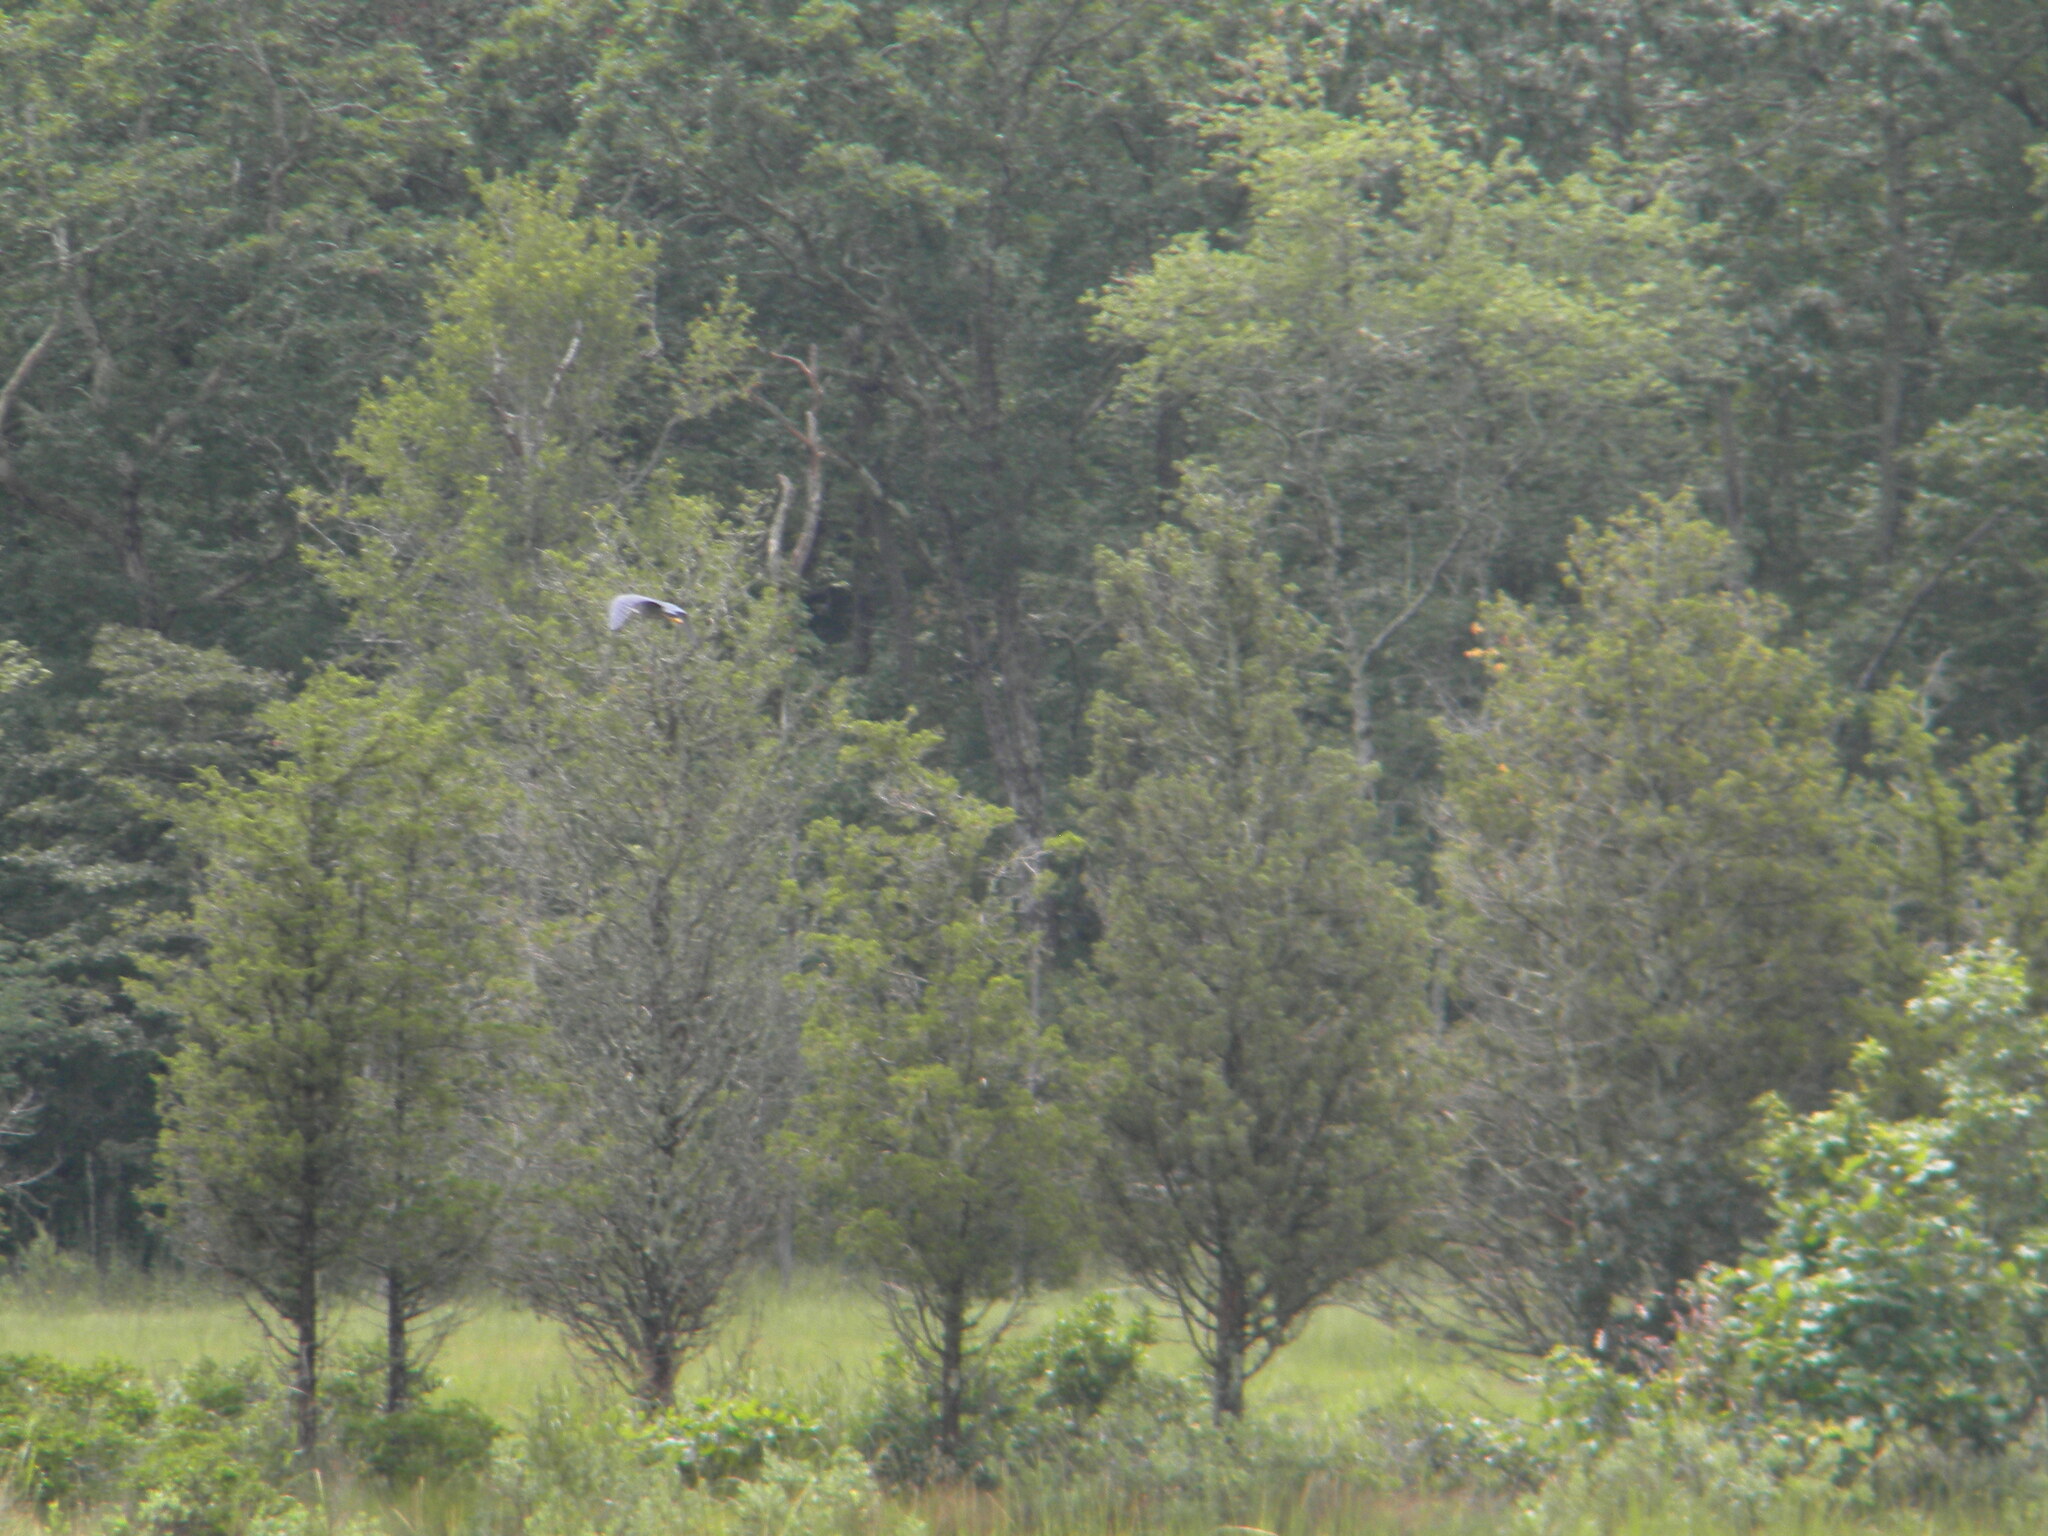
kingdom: Animalia
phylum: Chordata
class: Aves
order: Pelecaniformes
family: Ardeidae
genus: Butorides
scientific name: Butorides virescens
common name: Green heron
